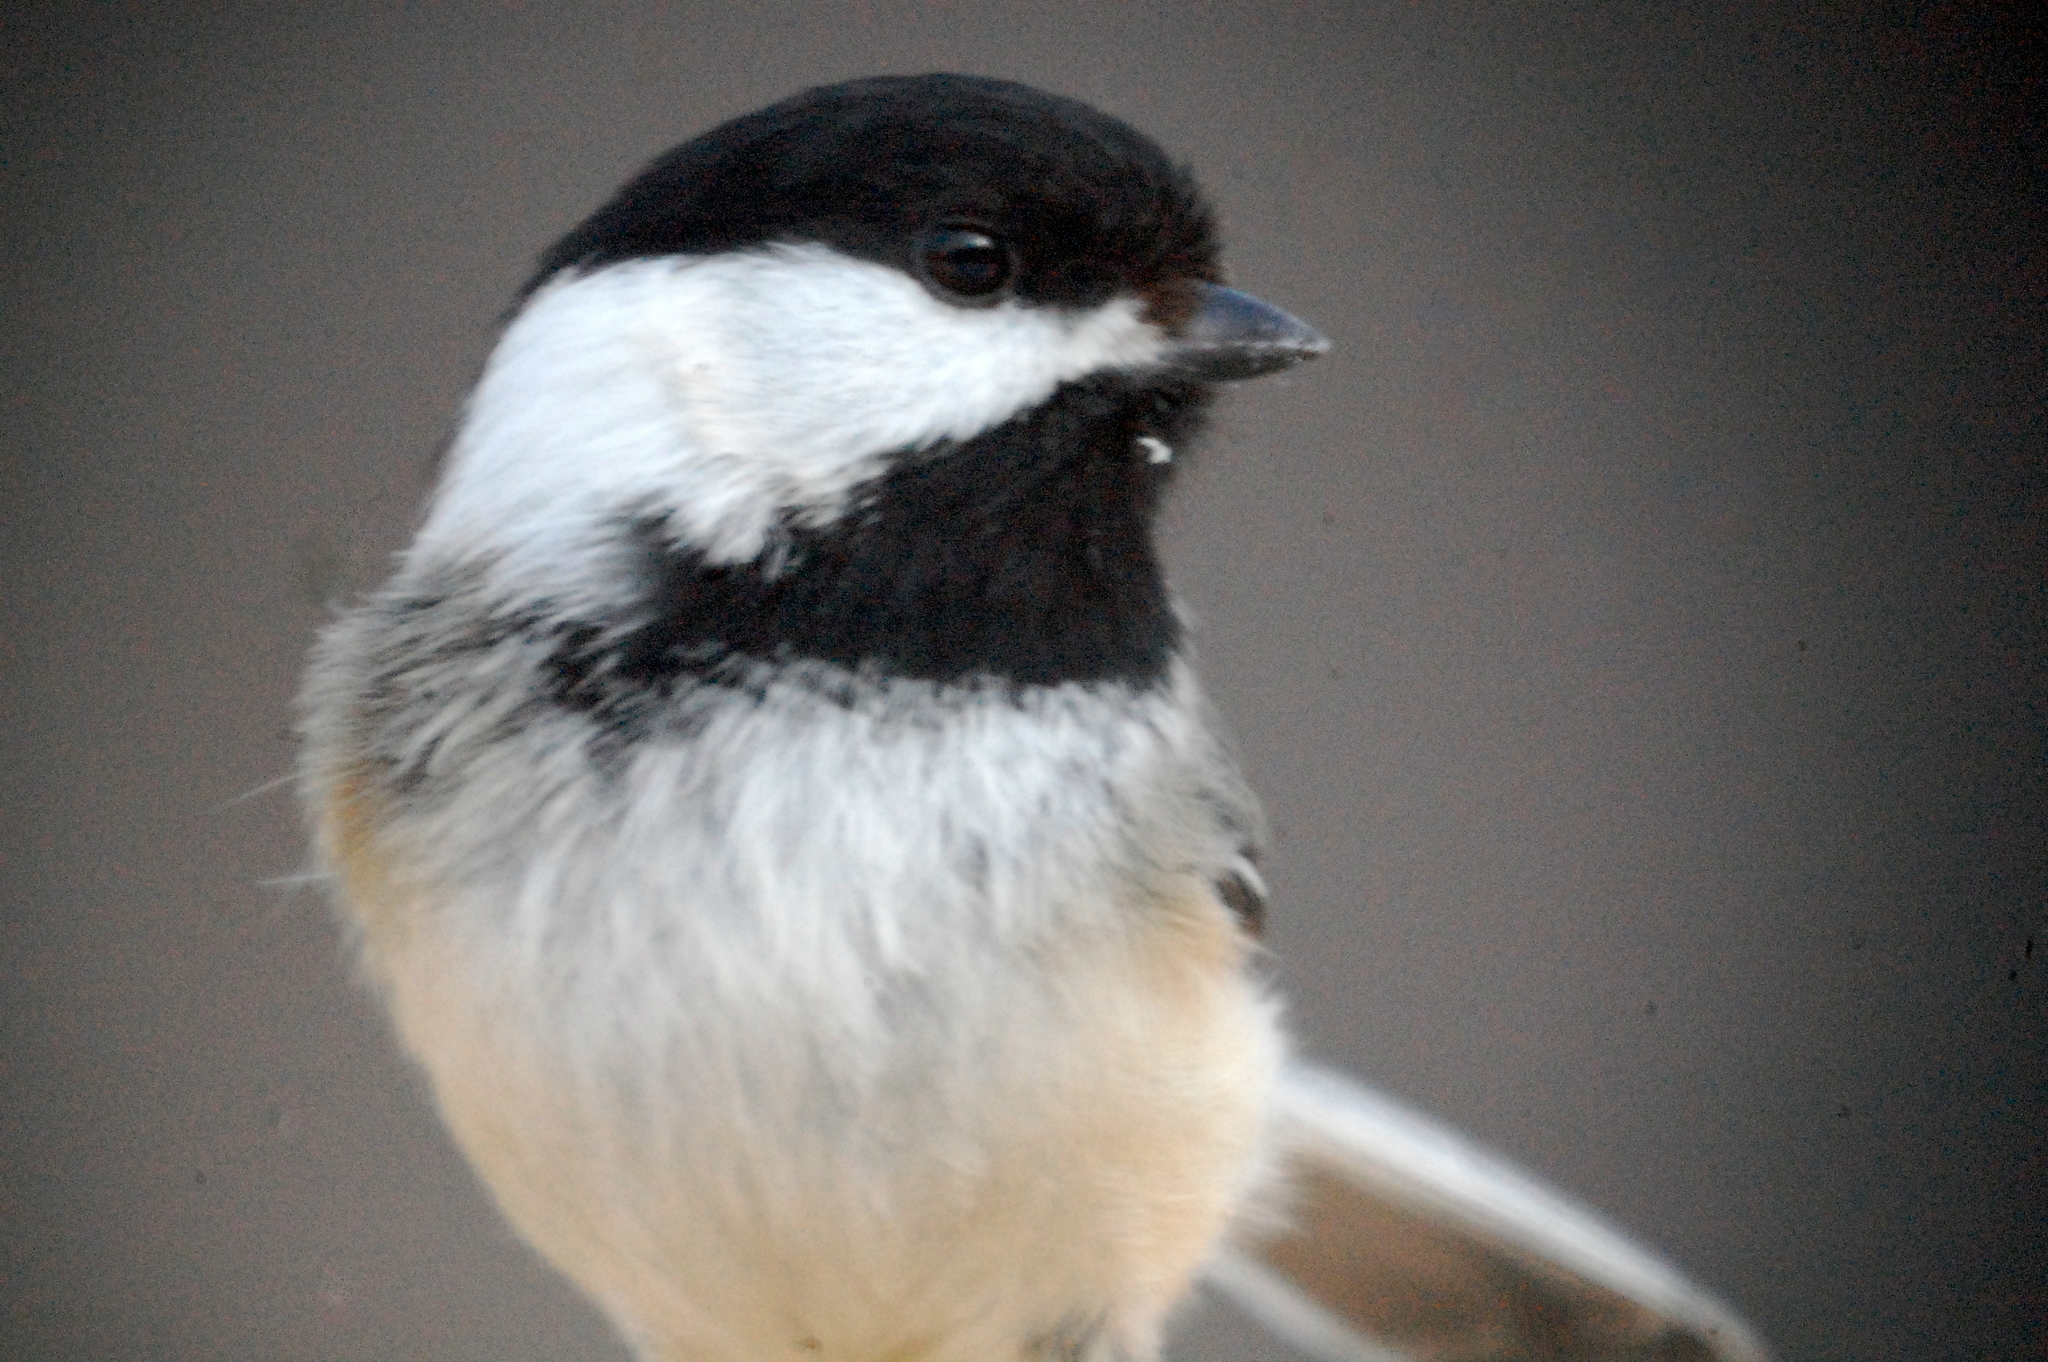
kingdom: Animalia
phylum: Chordata
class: Aves
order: Passeriformes
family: Paridae
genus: Poecile
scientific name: Poecile atricapillus
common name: Black-capped chickadee
